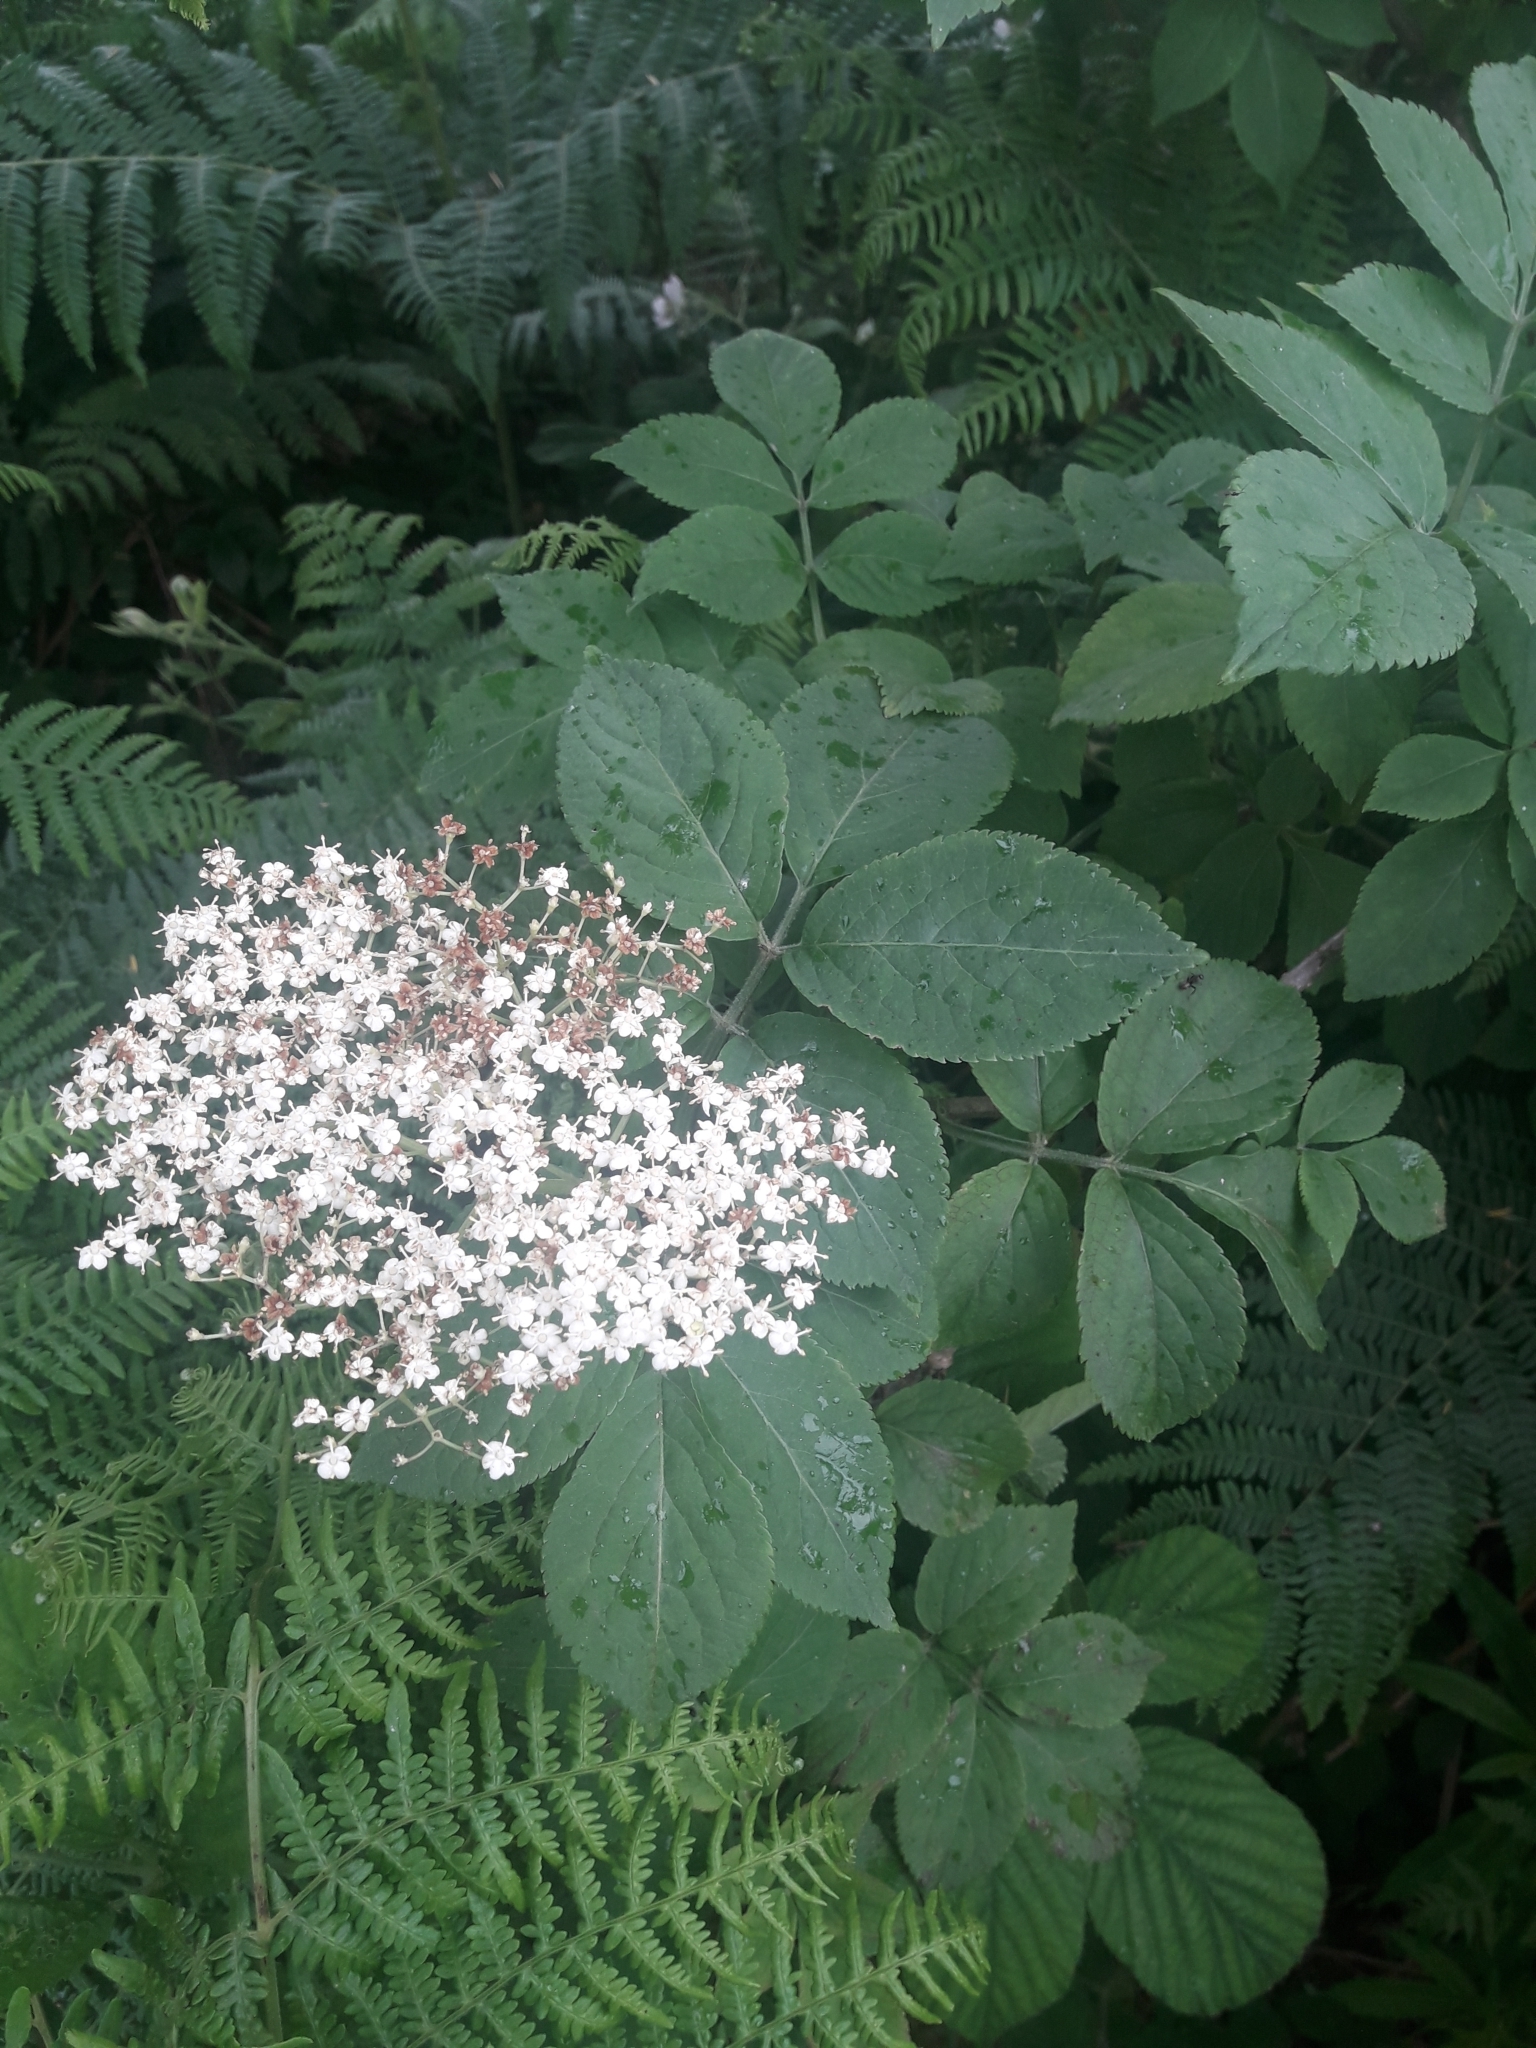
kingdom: Plantae
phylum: Tracheophyta
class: Magnoliopsida
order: Dipsacales
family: Viburnaceae
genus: Sambucus
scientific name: Sambucus nigra
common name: Elder
